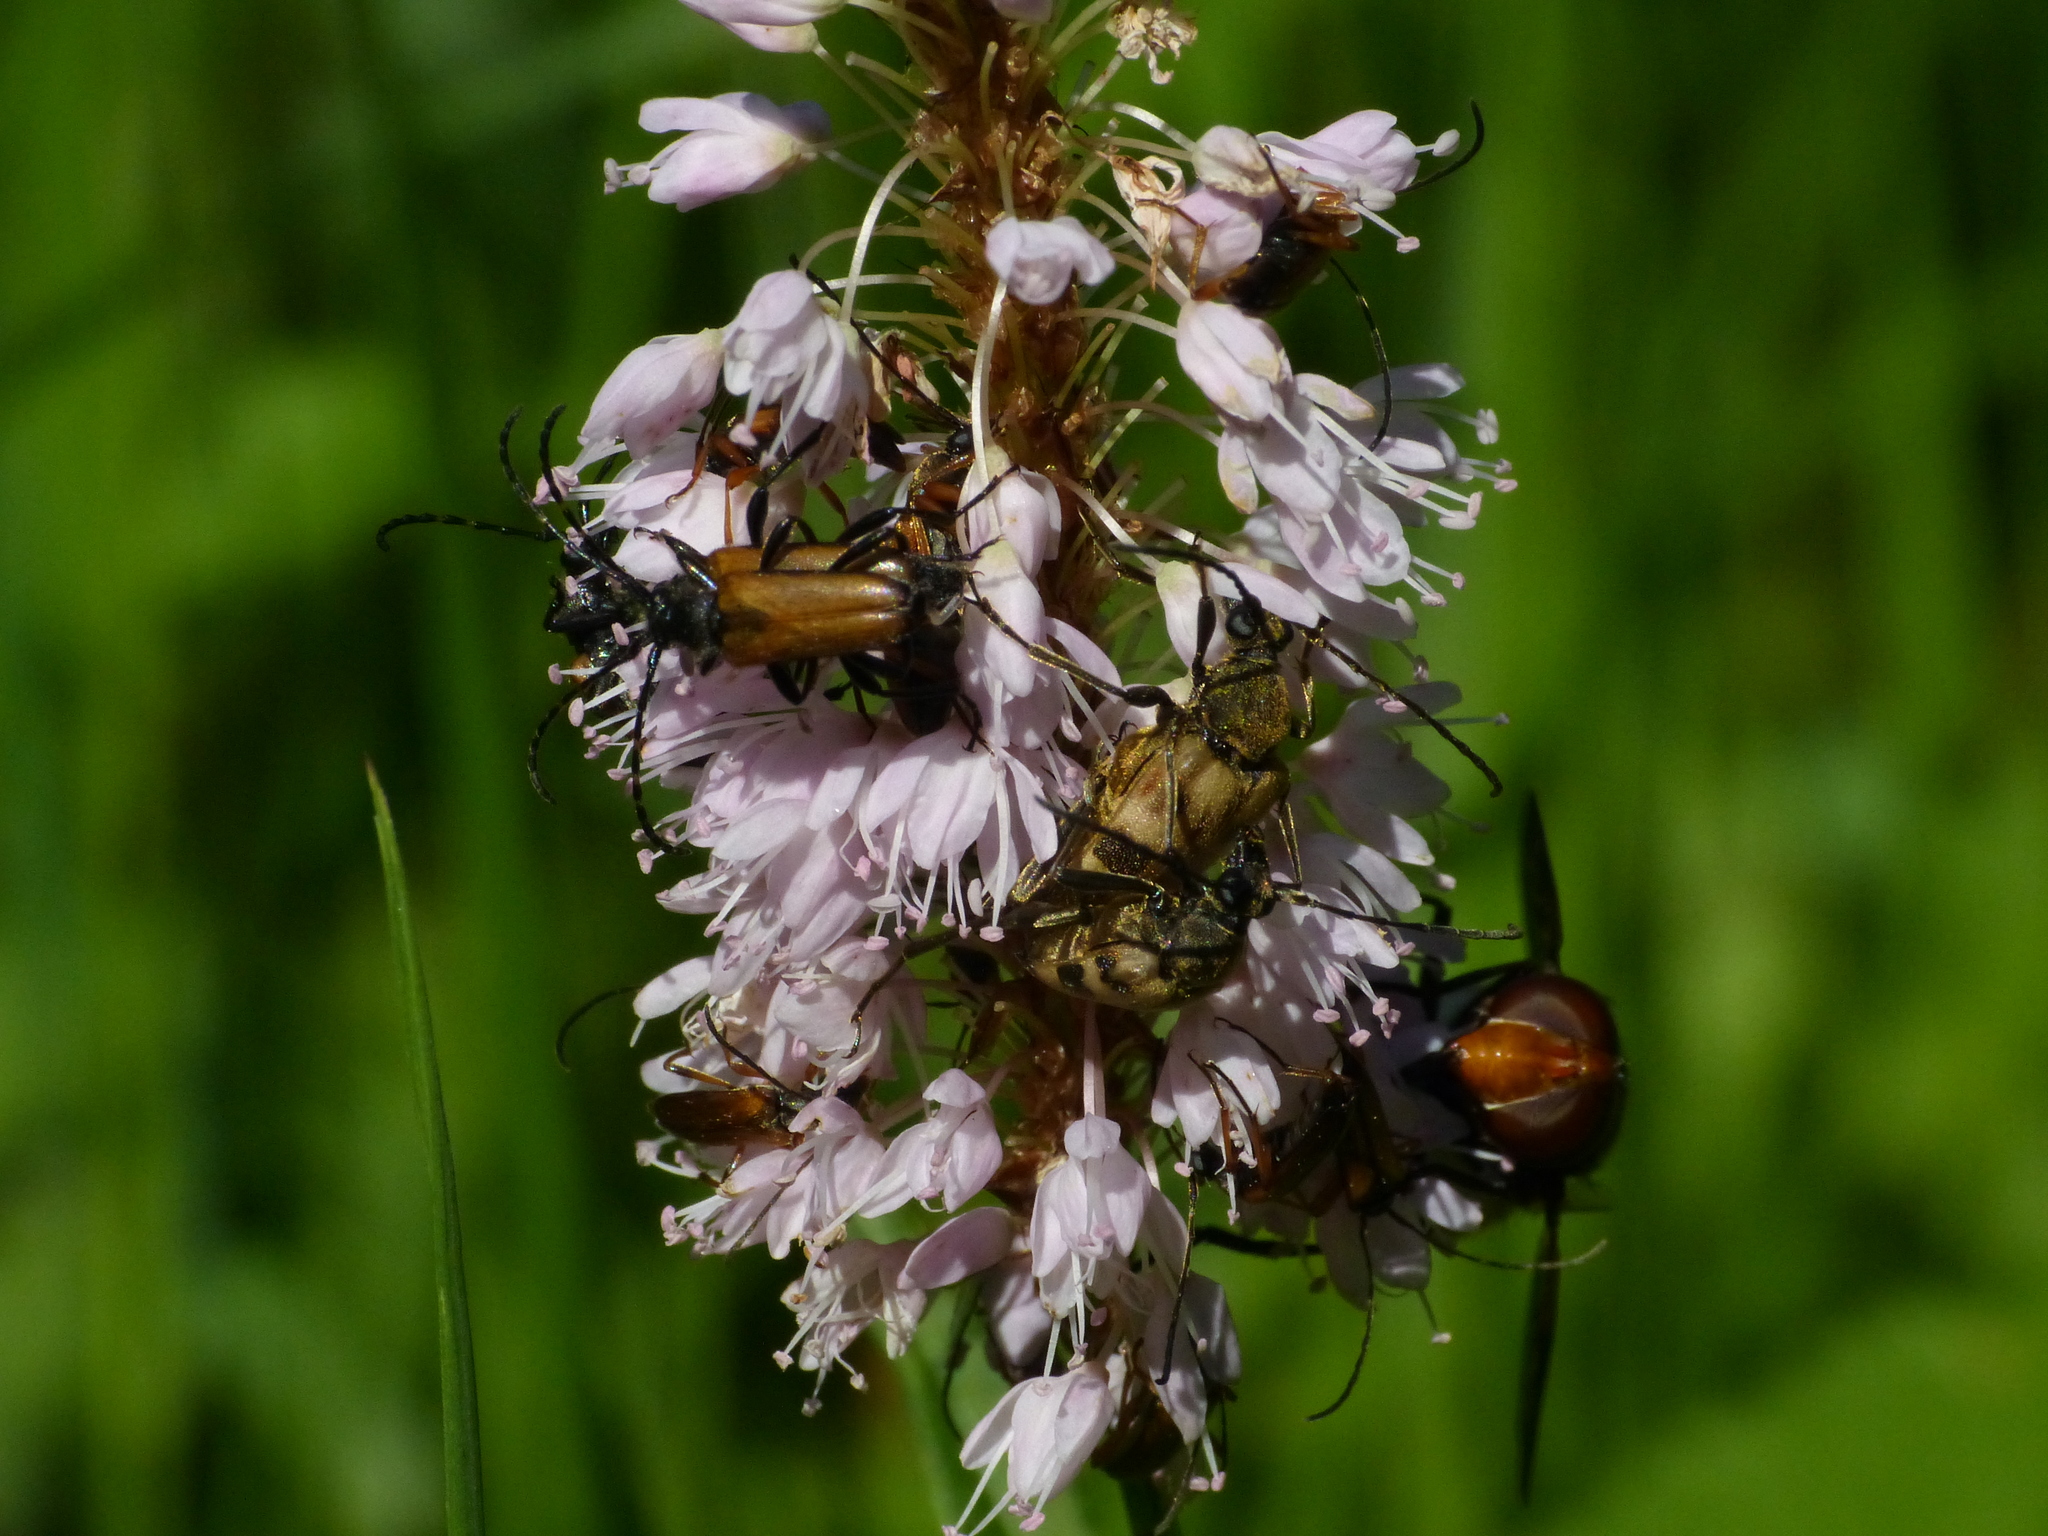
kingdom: Animalia
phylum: Arthropoda
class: Insecta
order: Coleoptera
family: Cerambycidae
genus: Pachytodes
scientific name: Pachytodes cerambyciformis
